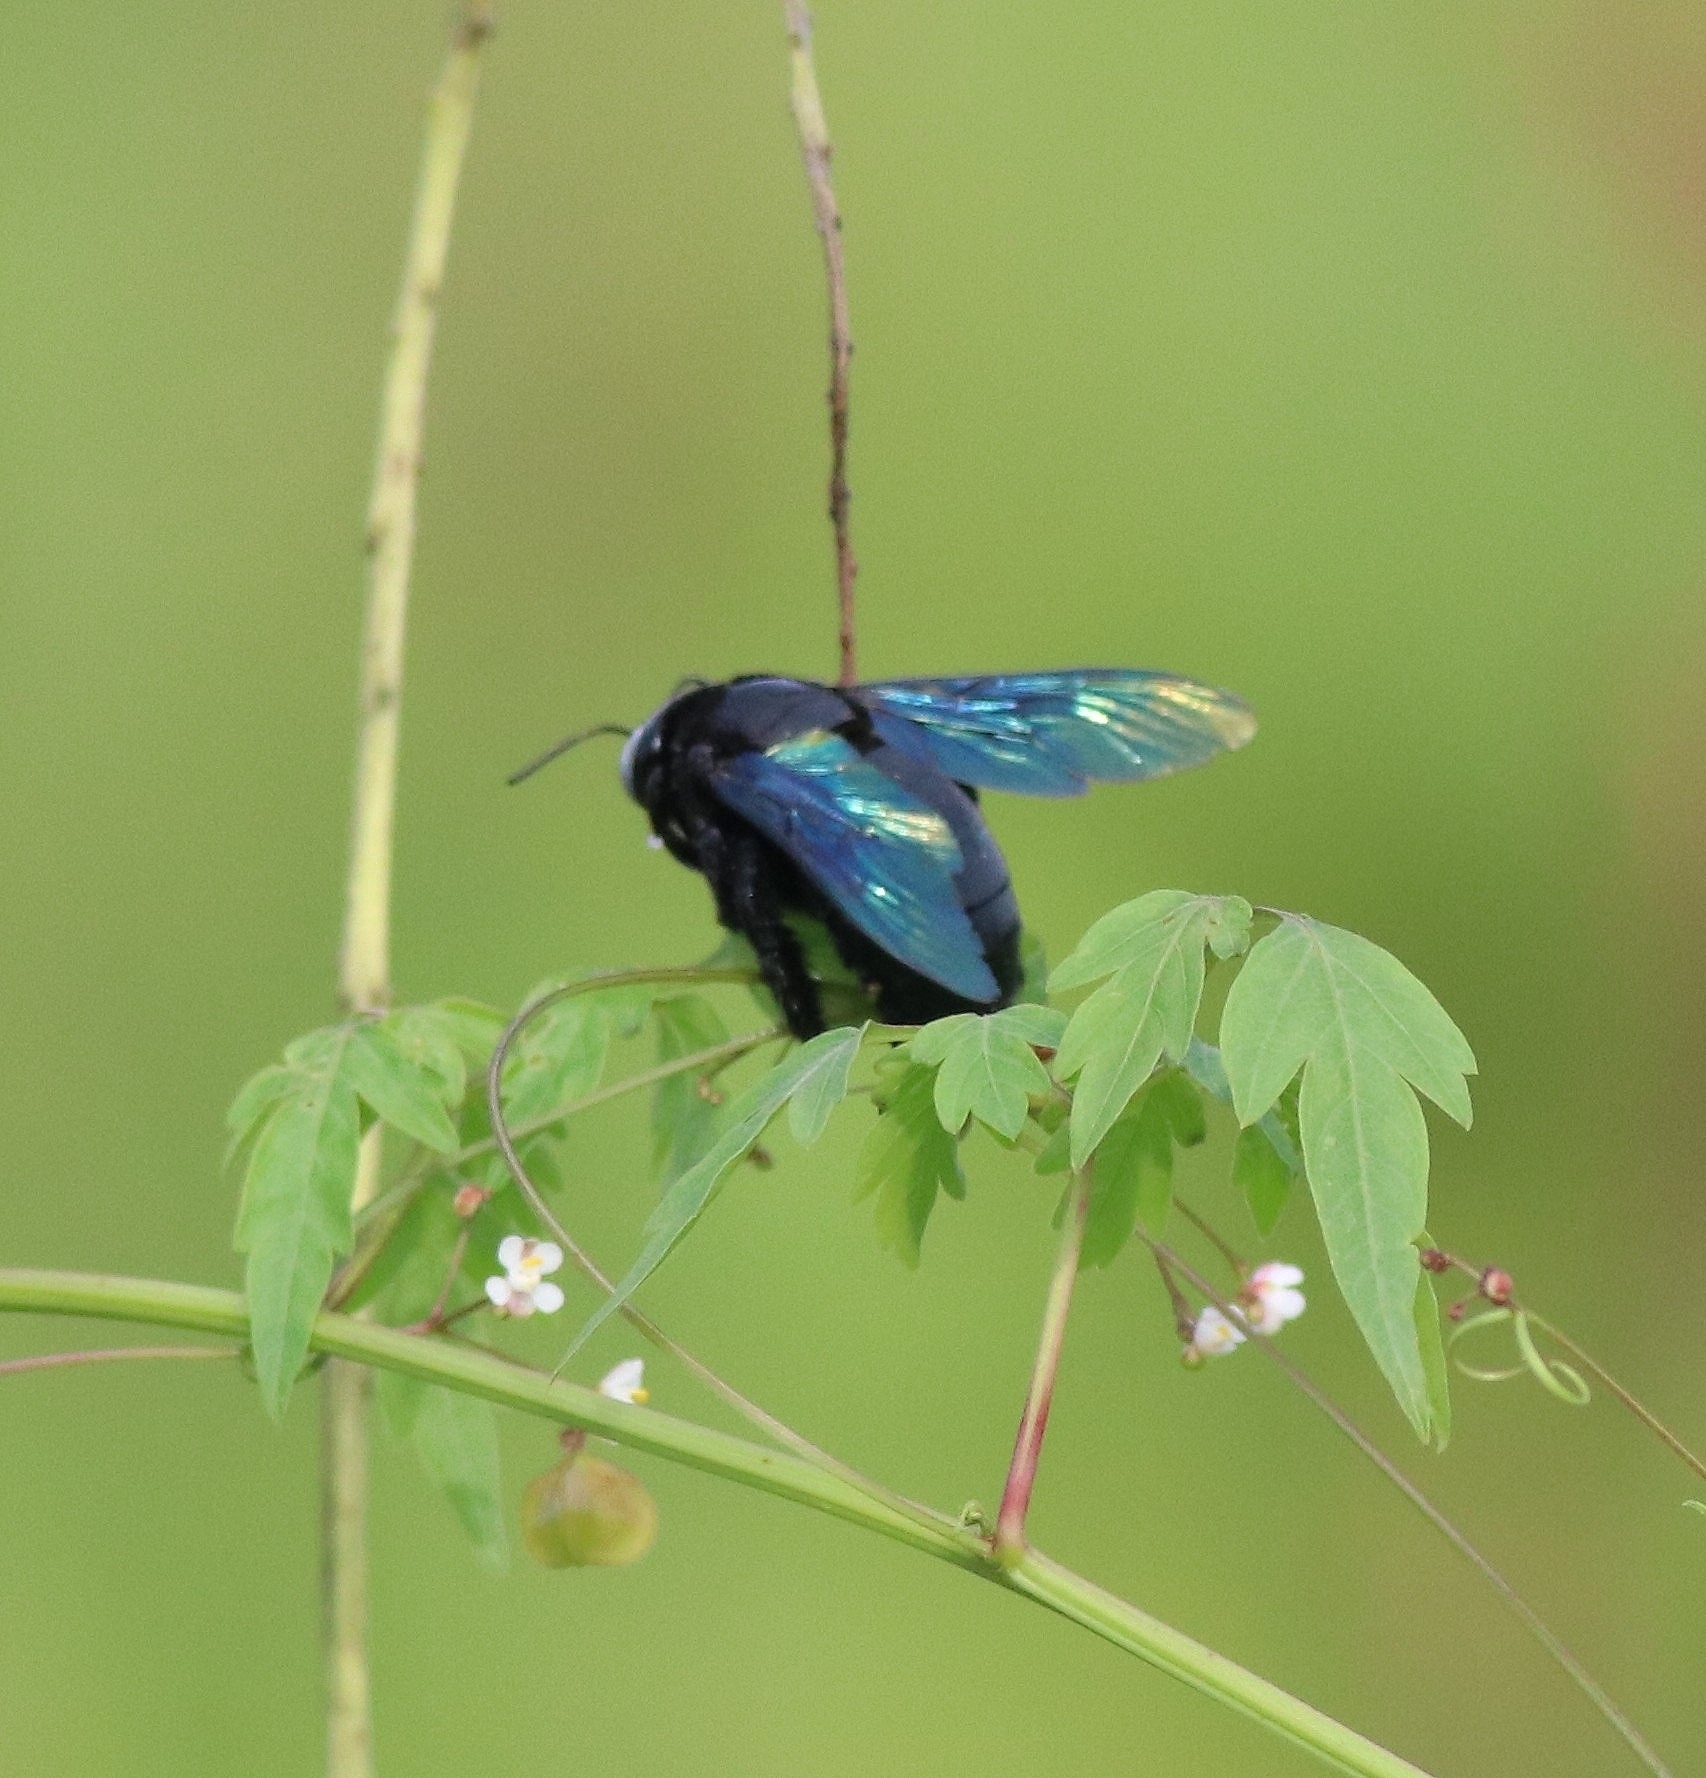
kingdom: Animalia
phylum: Arthropoda
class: Insecta
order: Hymenoptera
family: Apidae
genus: Xylocopa
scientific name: Xylocopa tenuiscapa
